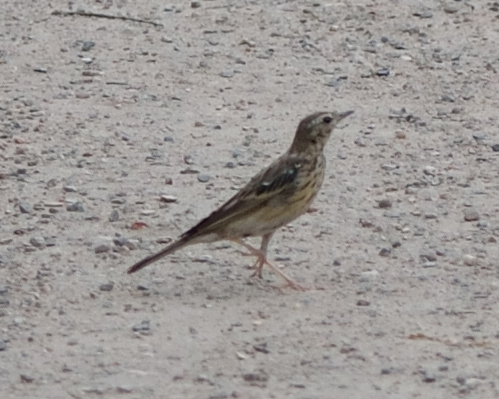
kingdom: Animalia
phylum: Chordata
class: Aves
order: Passeriformes
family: Motacillidae
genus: Anthus
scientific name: Anthus trivialis
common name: Tree pipit
